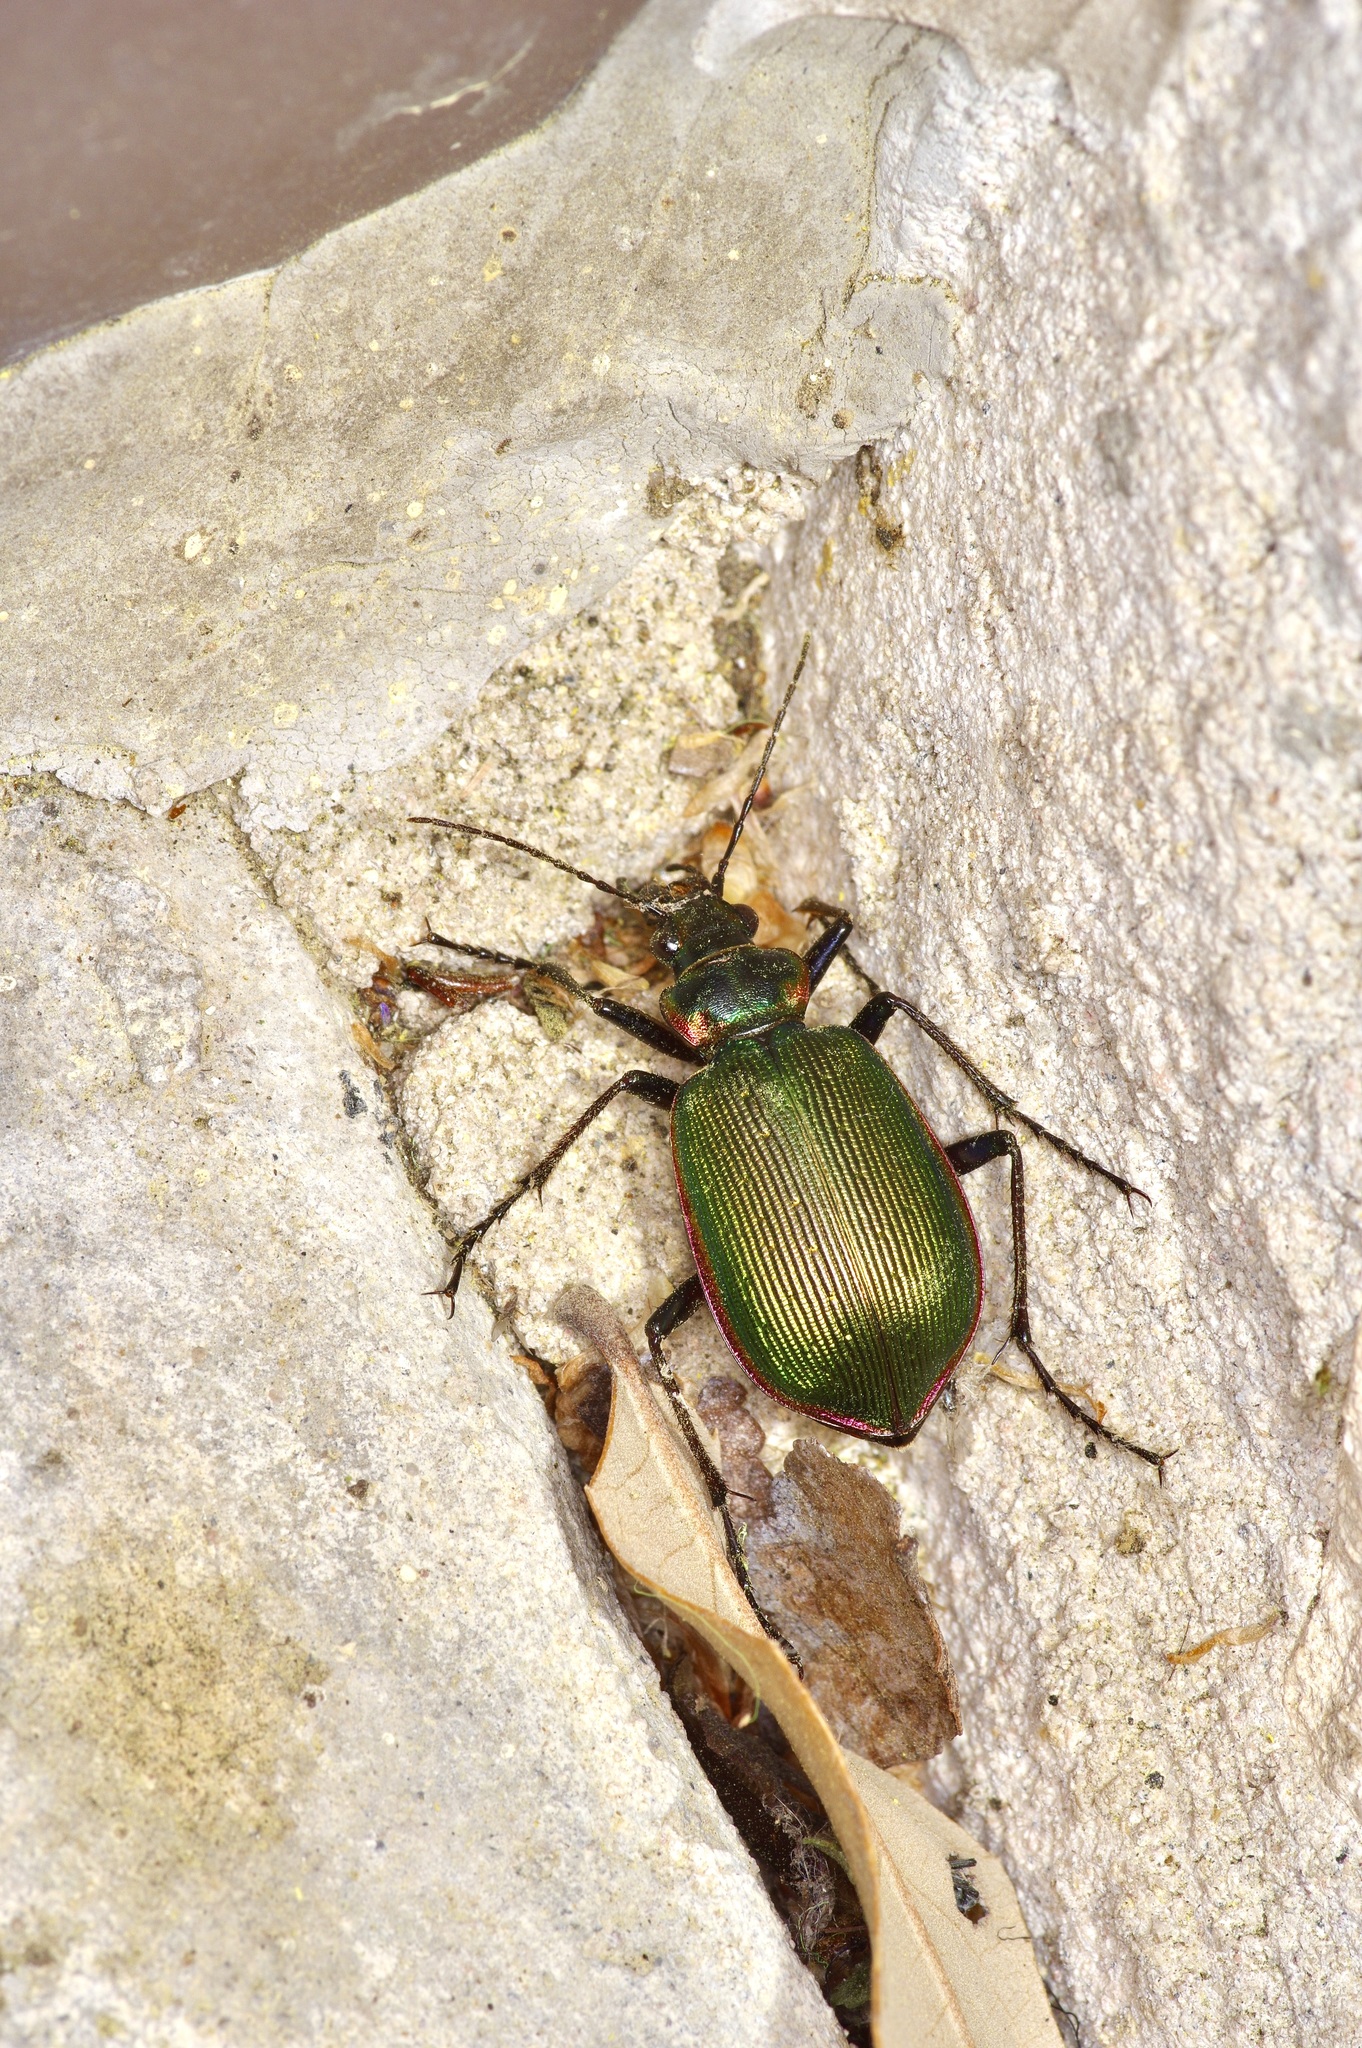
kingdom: Animalia
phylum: Arthropoda
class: Insecta
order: Coleoptera
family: Carabidae
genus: Calosoma
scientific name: Calosoma wilcoxi
